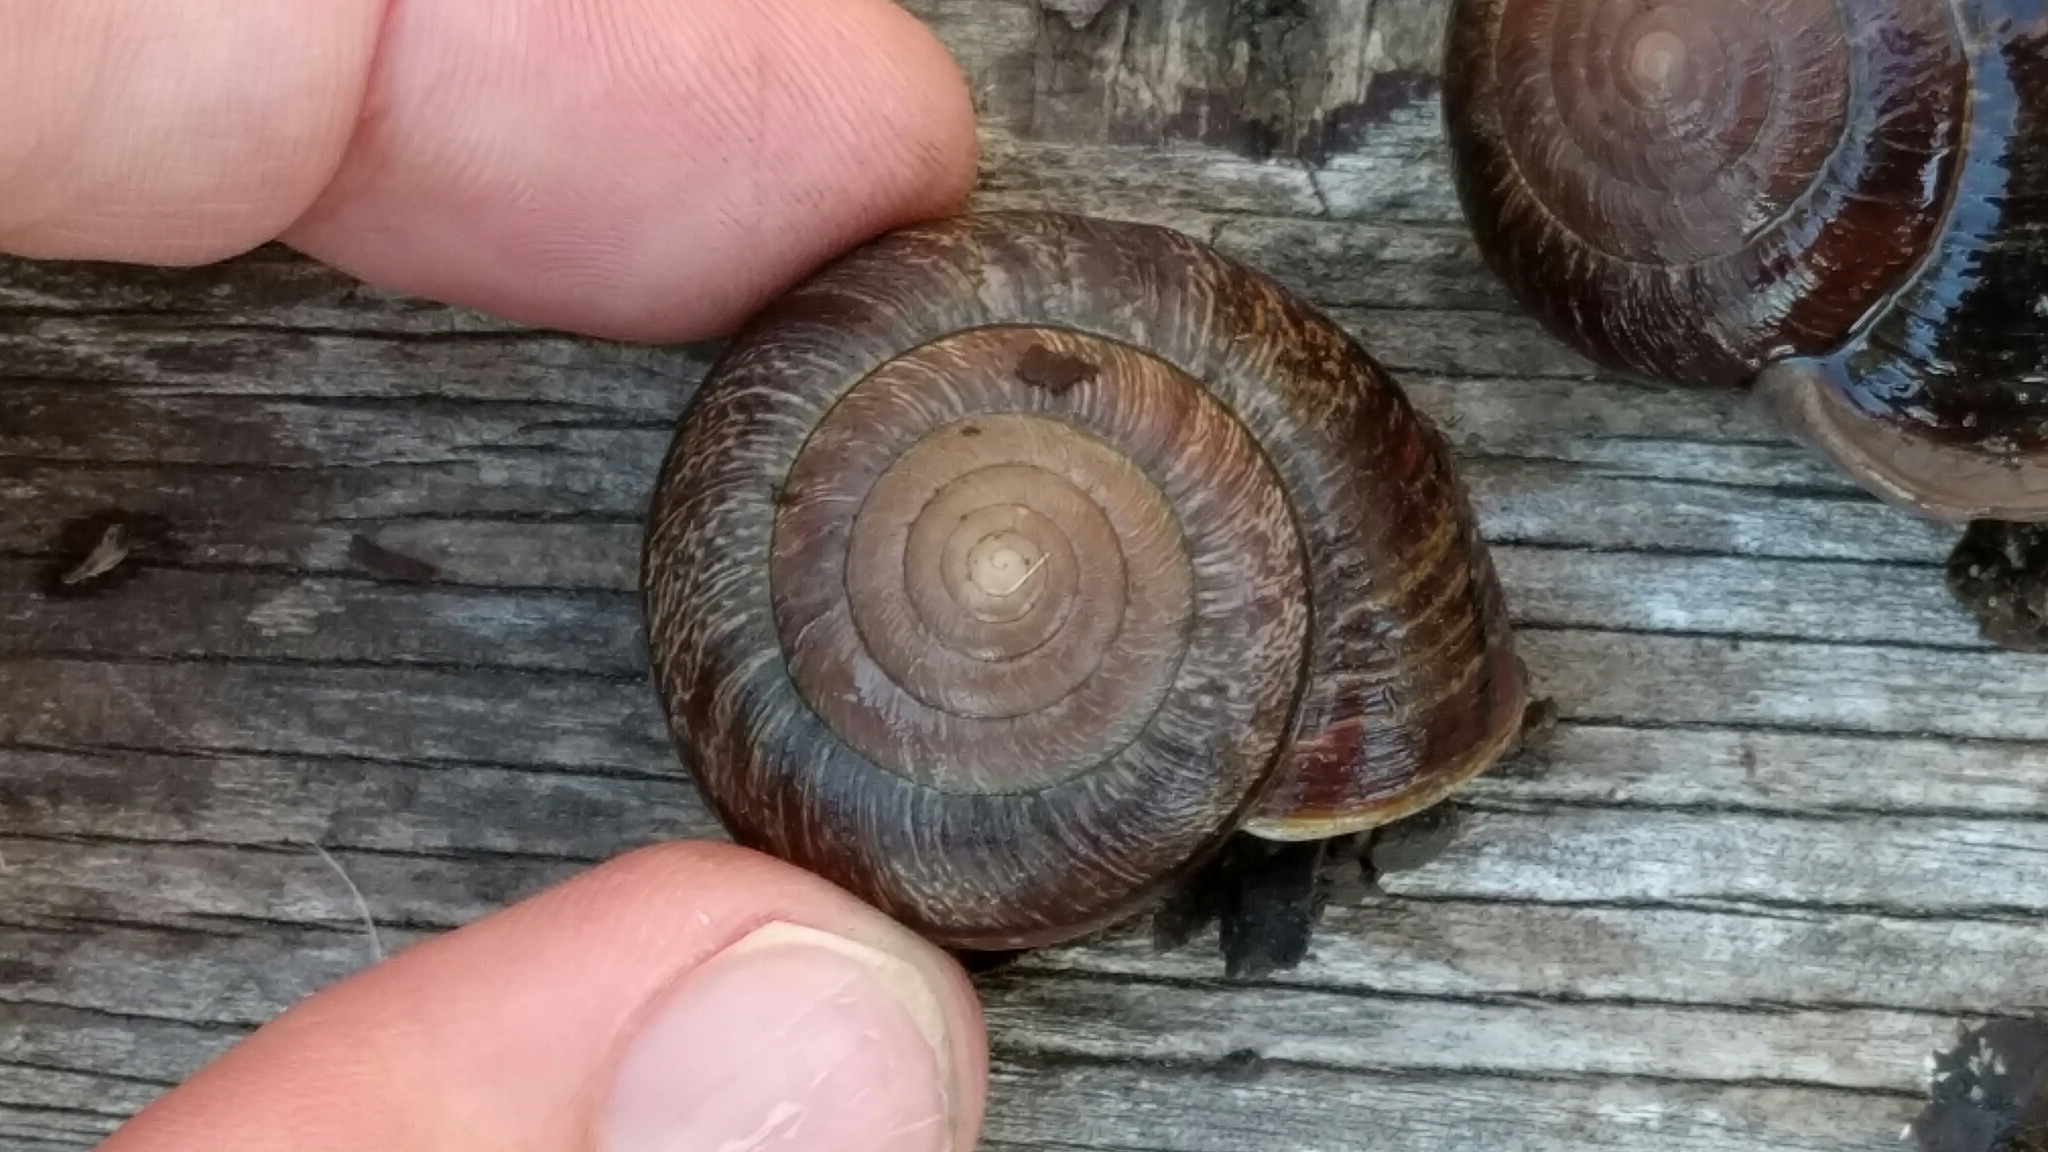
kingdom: Animalia
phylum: Mollusca
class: Gastropoda
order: Stylommatophora
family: Xanthonychidae
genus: Helminthoglypta
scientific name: Helminthoglypta arrosa
